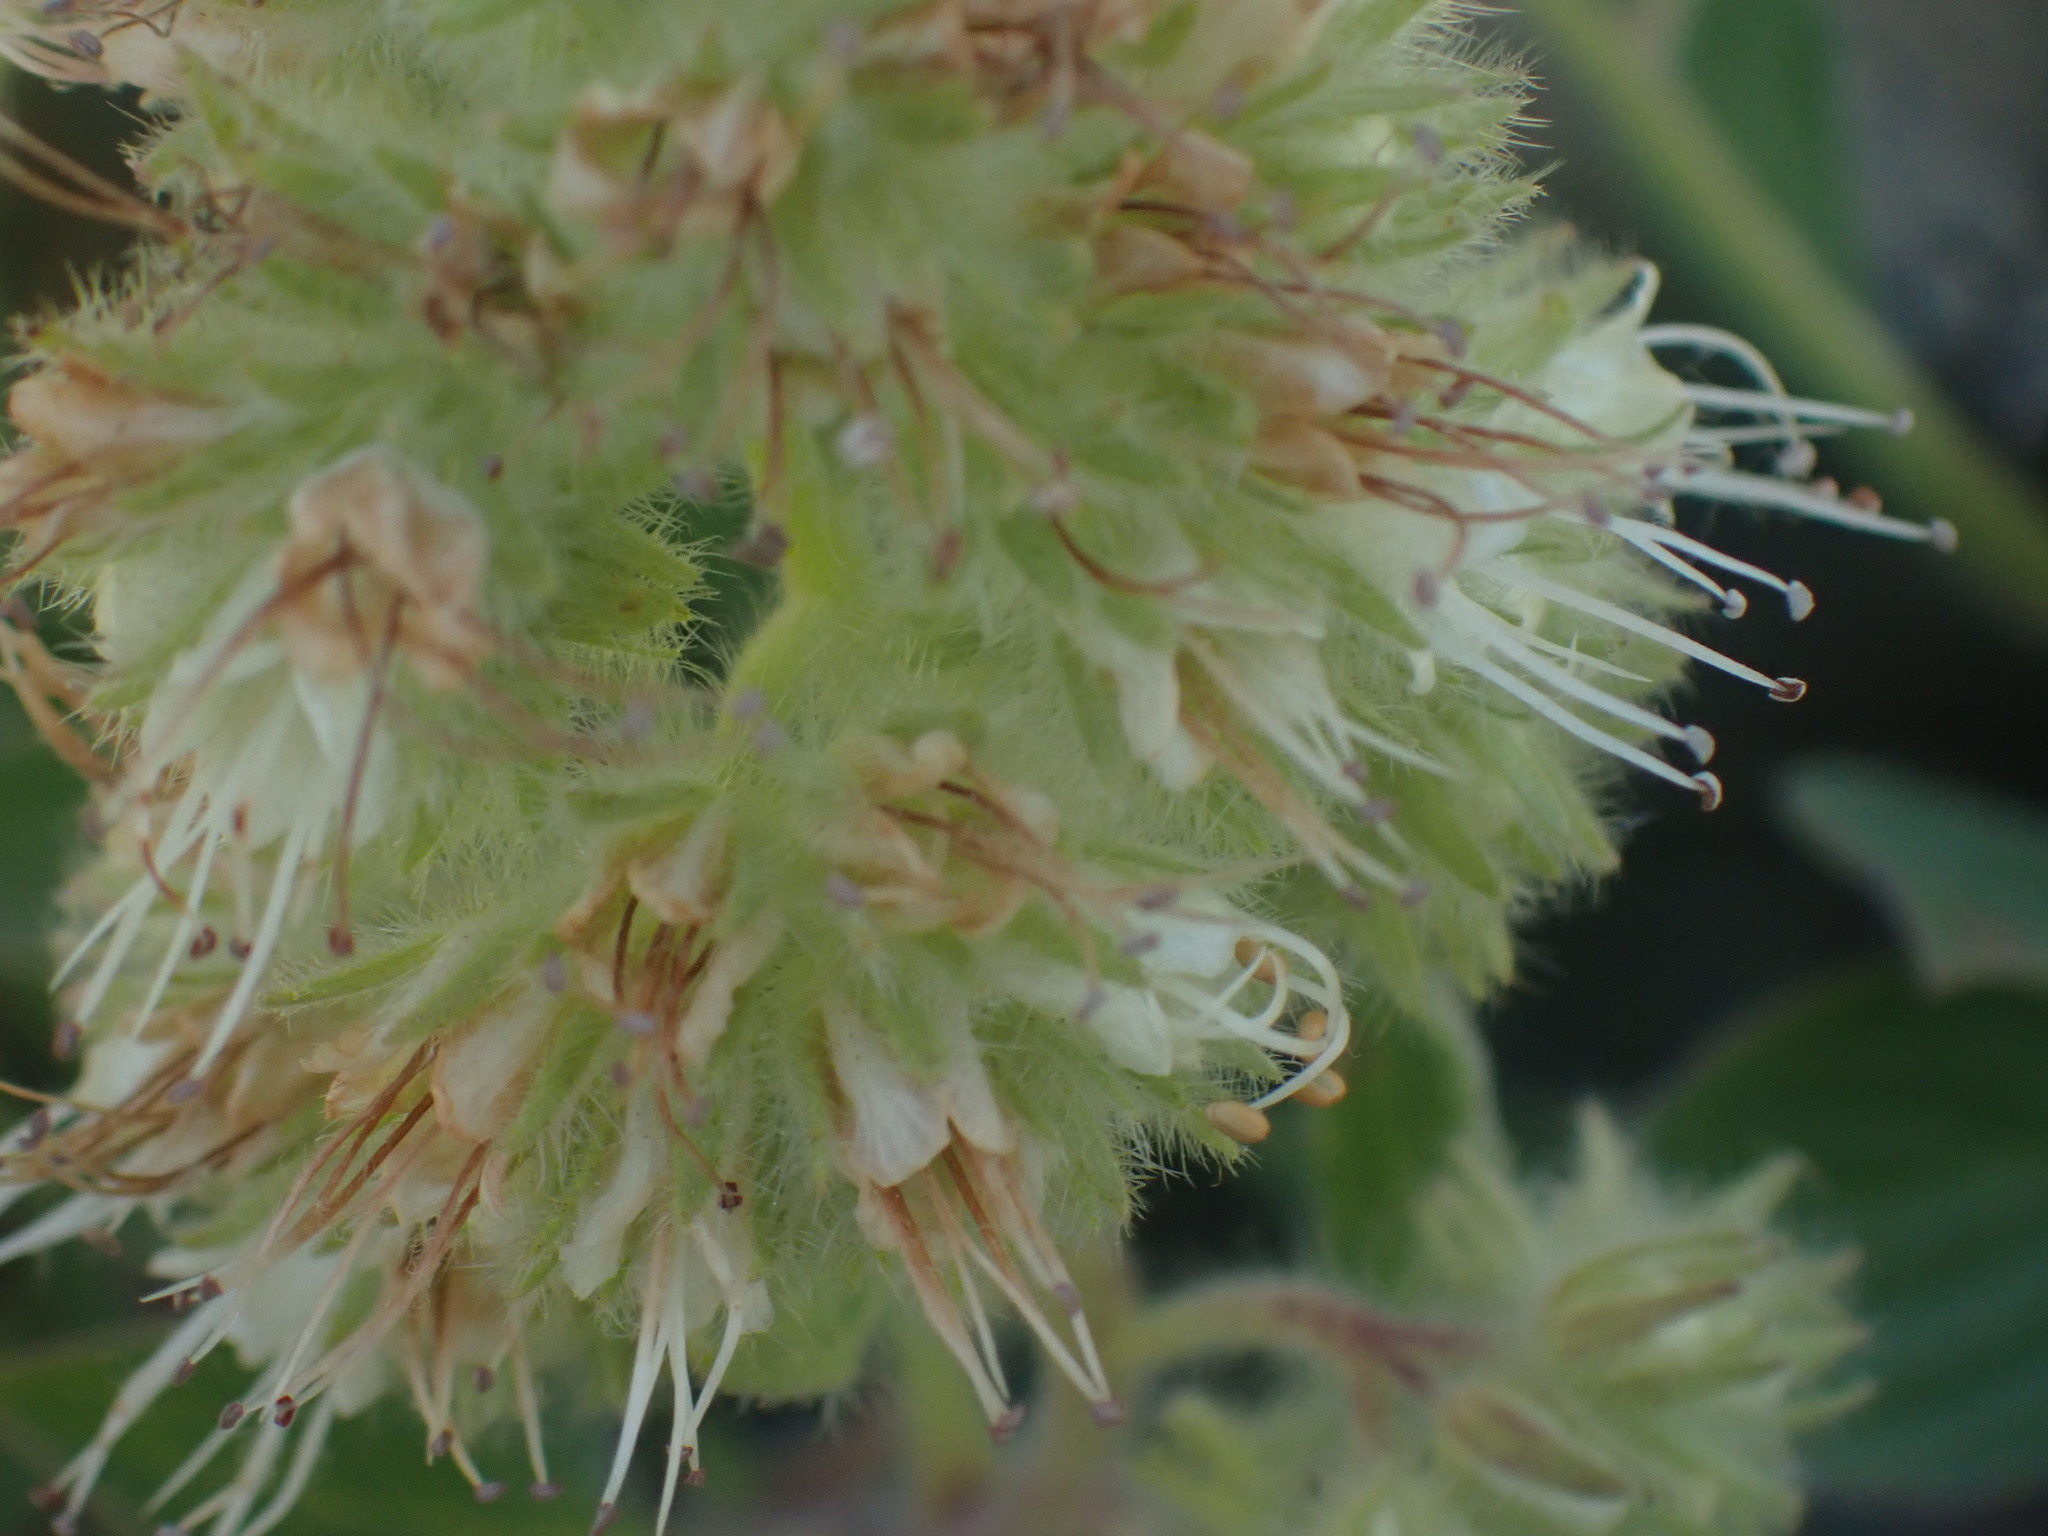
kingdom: Plantae
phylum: Tracheophyta
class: Magnoliopsida
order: Boraginales
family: Hydrophyllaceae
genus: Phacelia
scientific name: Phacelia hastata
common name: Silver-leaved phacelia
